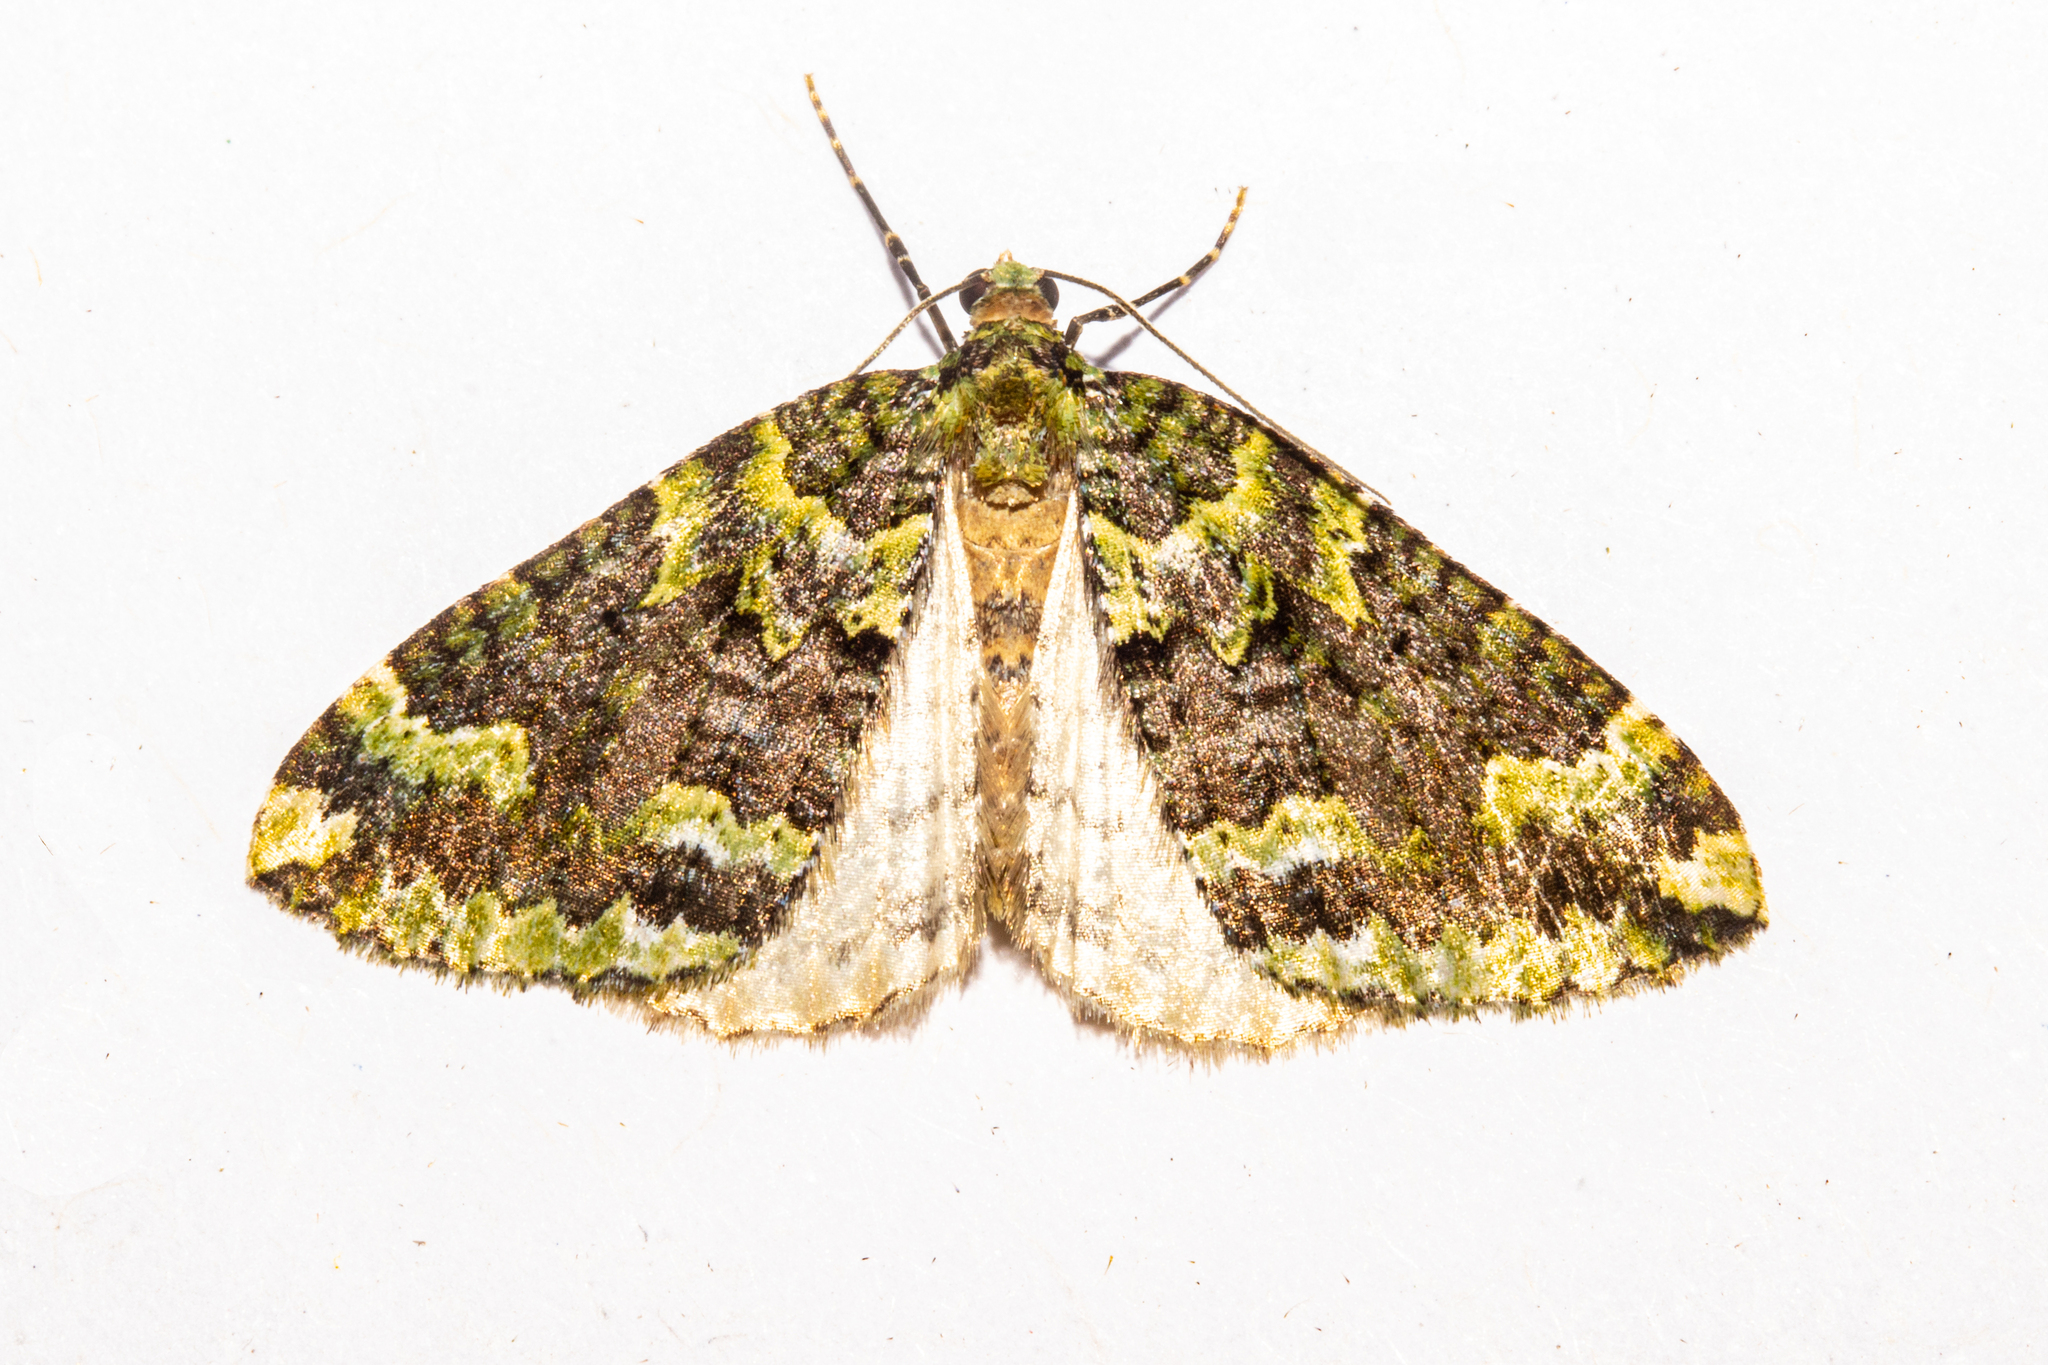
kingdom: Animalia
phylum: Arthropoda
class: Insecta
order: Lepidoptera
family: Geometridae
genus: Austrocidaria
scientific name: Austrocidaria callichlora
